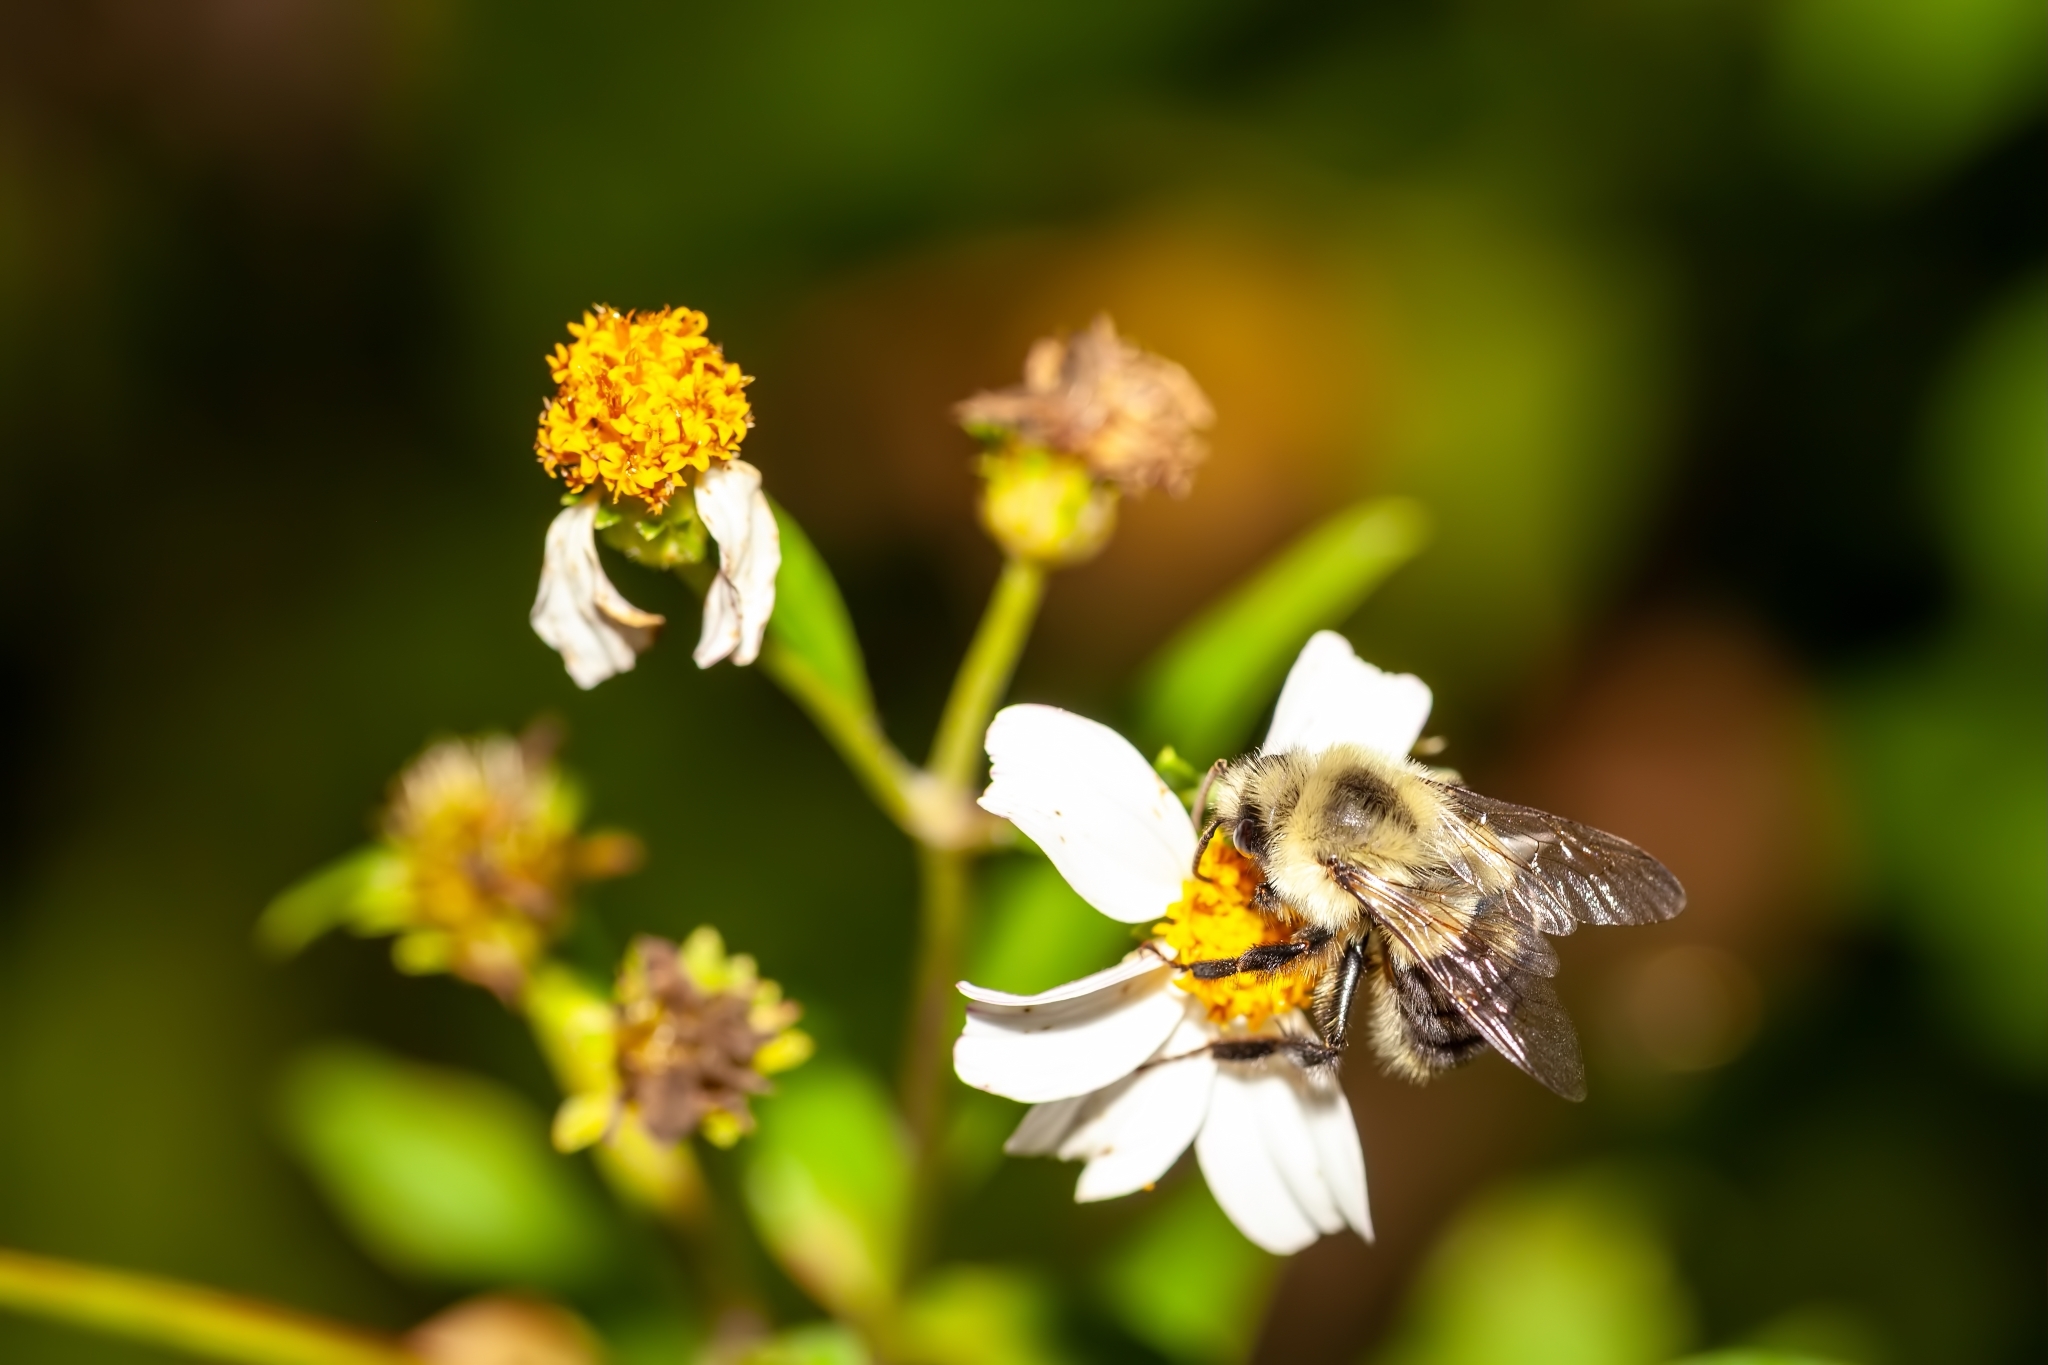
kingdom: Animalia
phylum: Arthropoda
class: Insecta
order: Hymenoptera
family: Apidae
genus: Bombus
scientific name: Bombus impatiens
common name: Common eastern bumble bee
